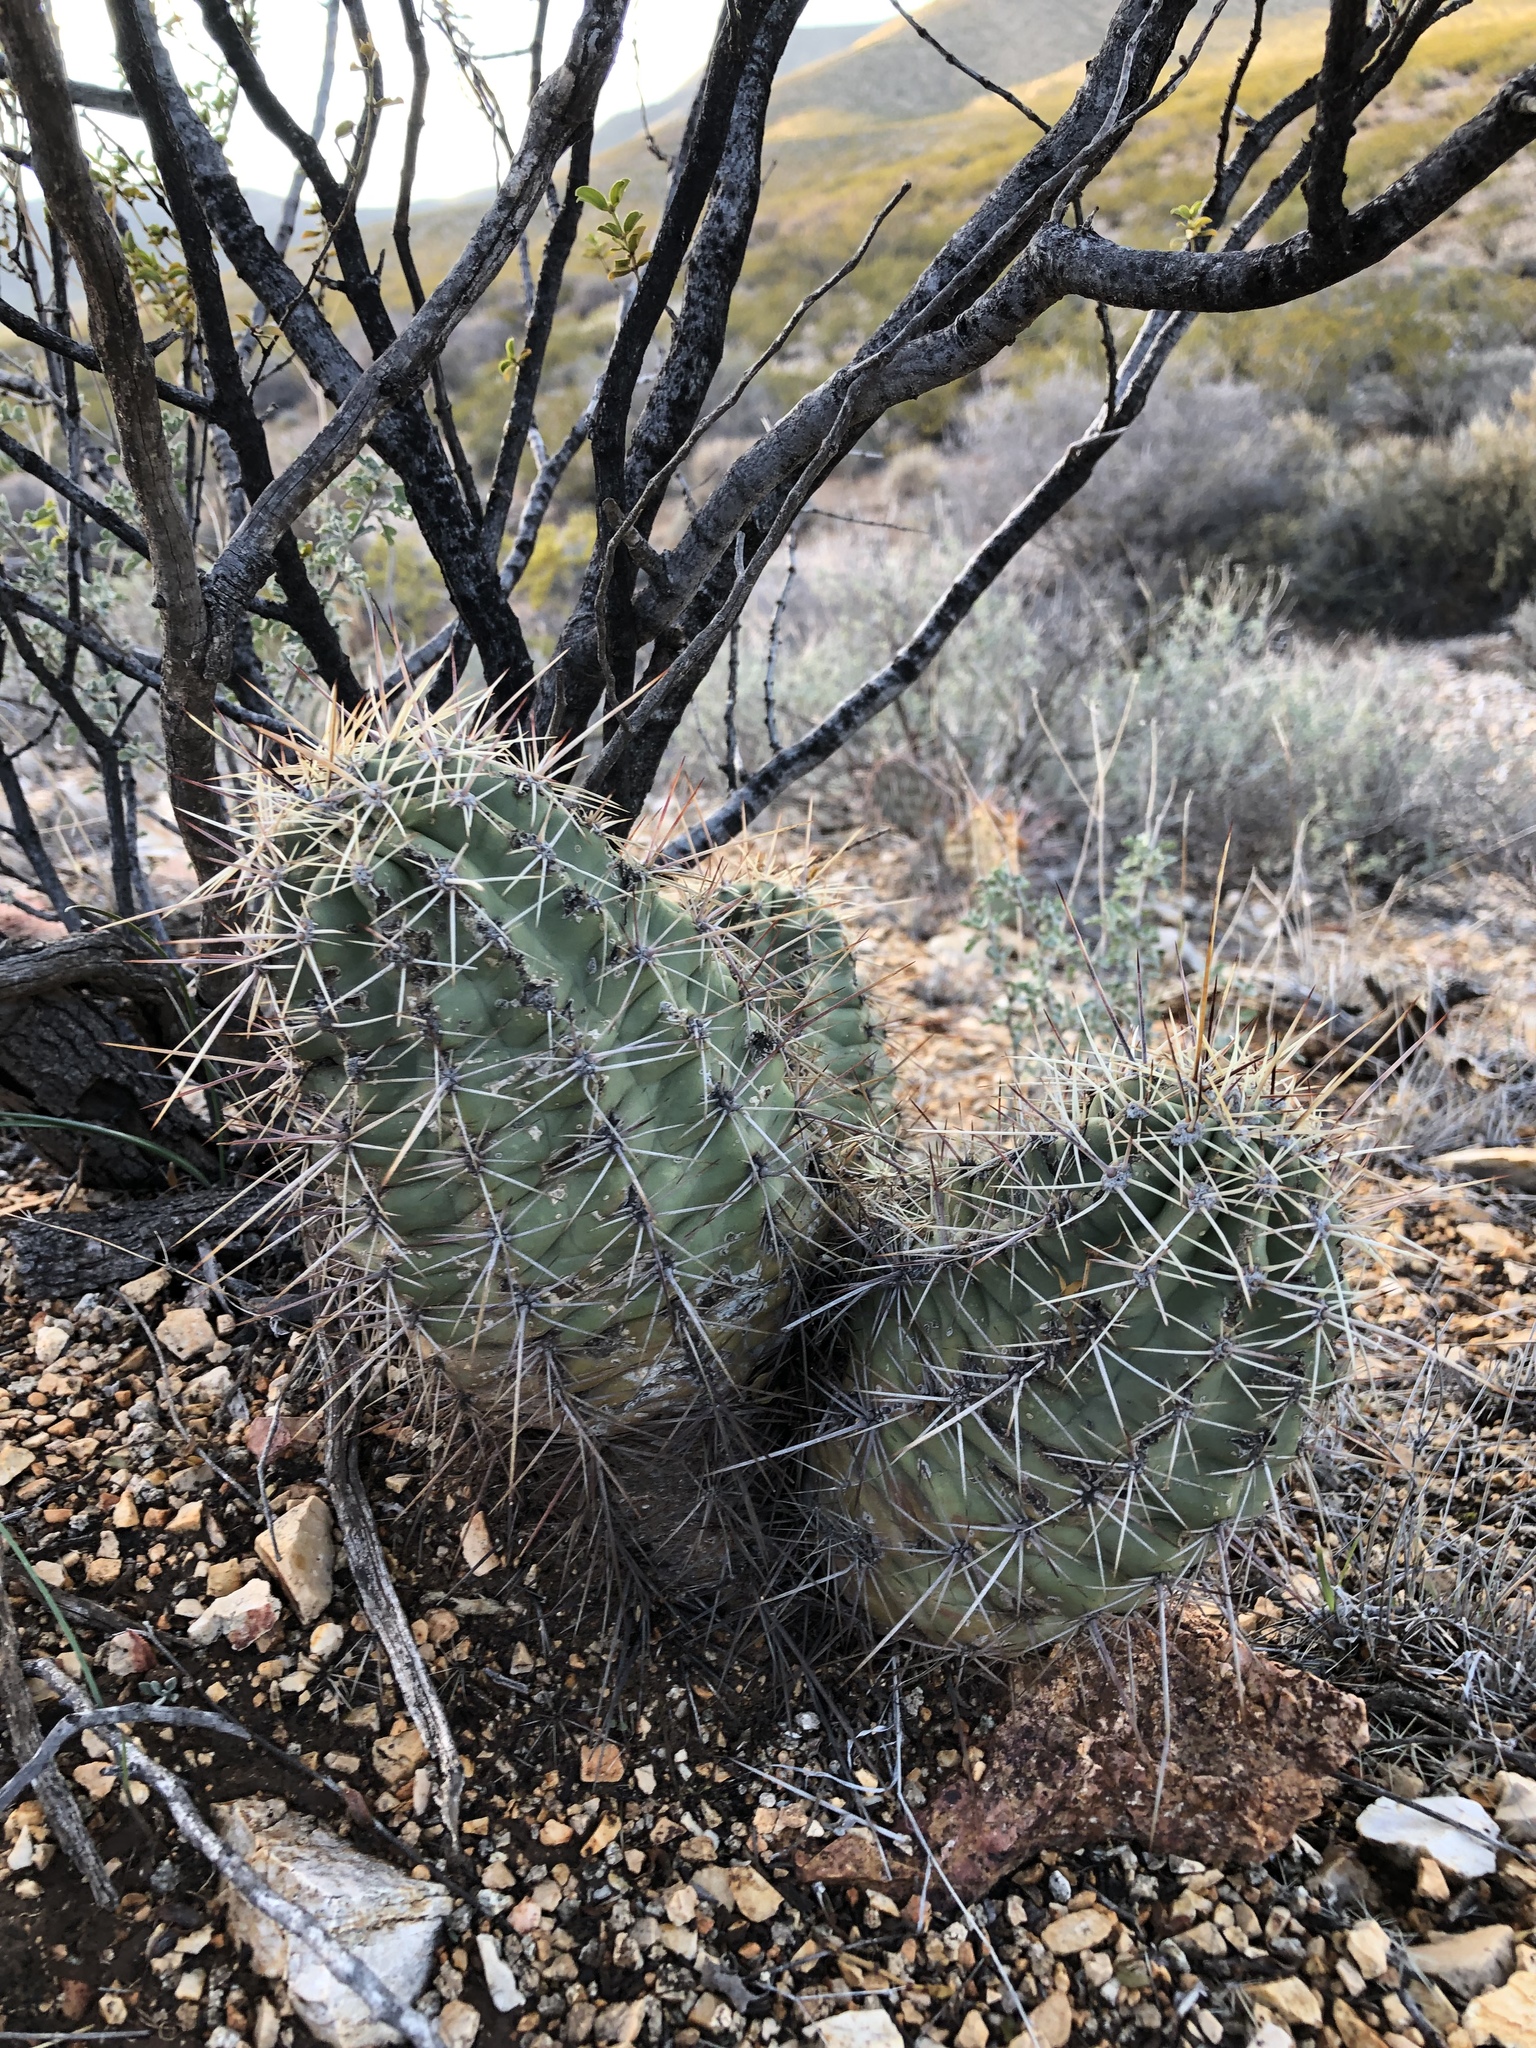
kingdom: Plantae
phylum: Tracheophyta
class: Magnoliopsida
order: Caryophyllales
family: Cactaceae
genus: Echinocereus
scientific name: Echinocereus coccineus
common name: Scarlet hedgehog cactus
